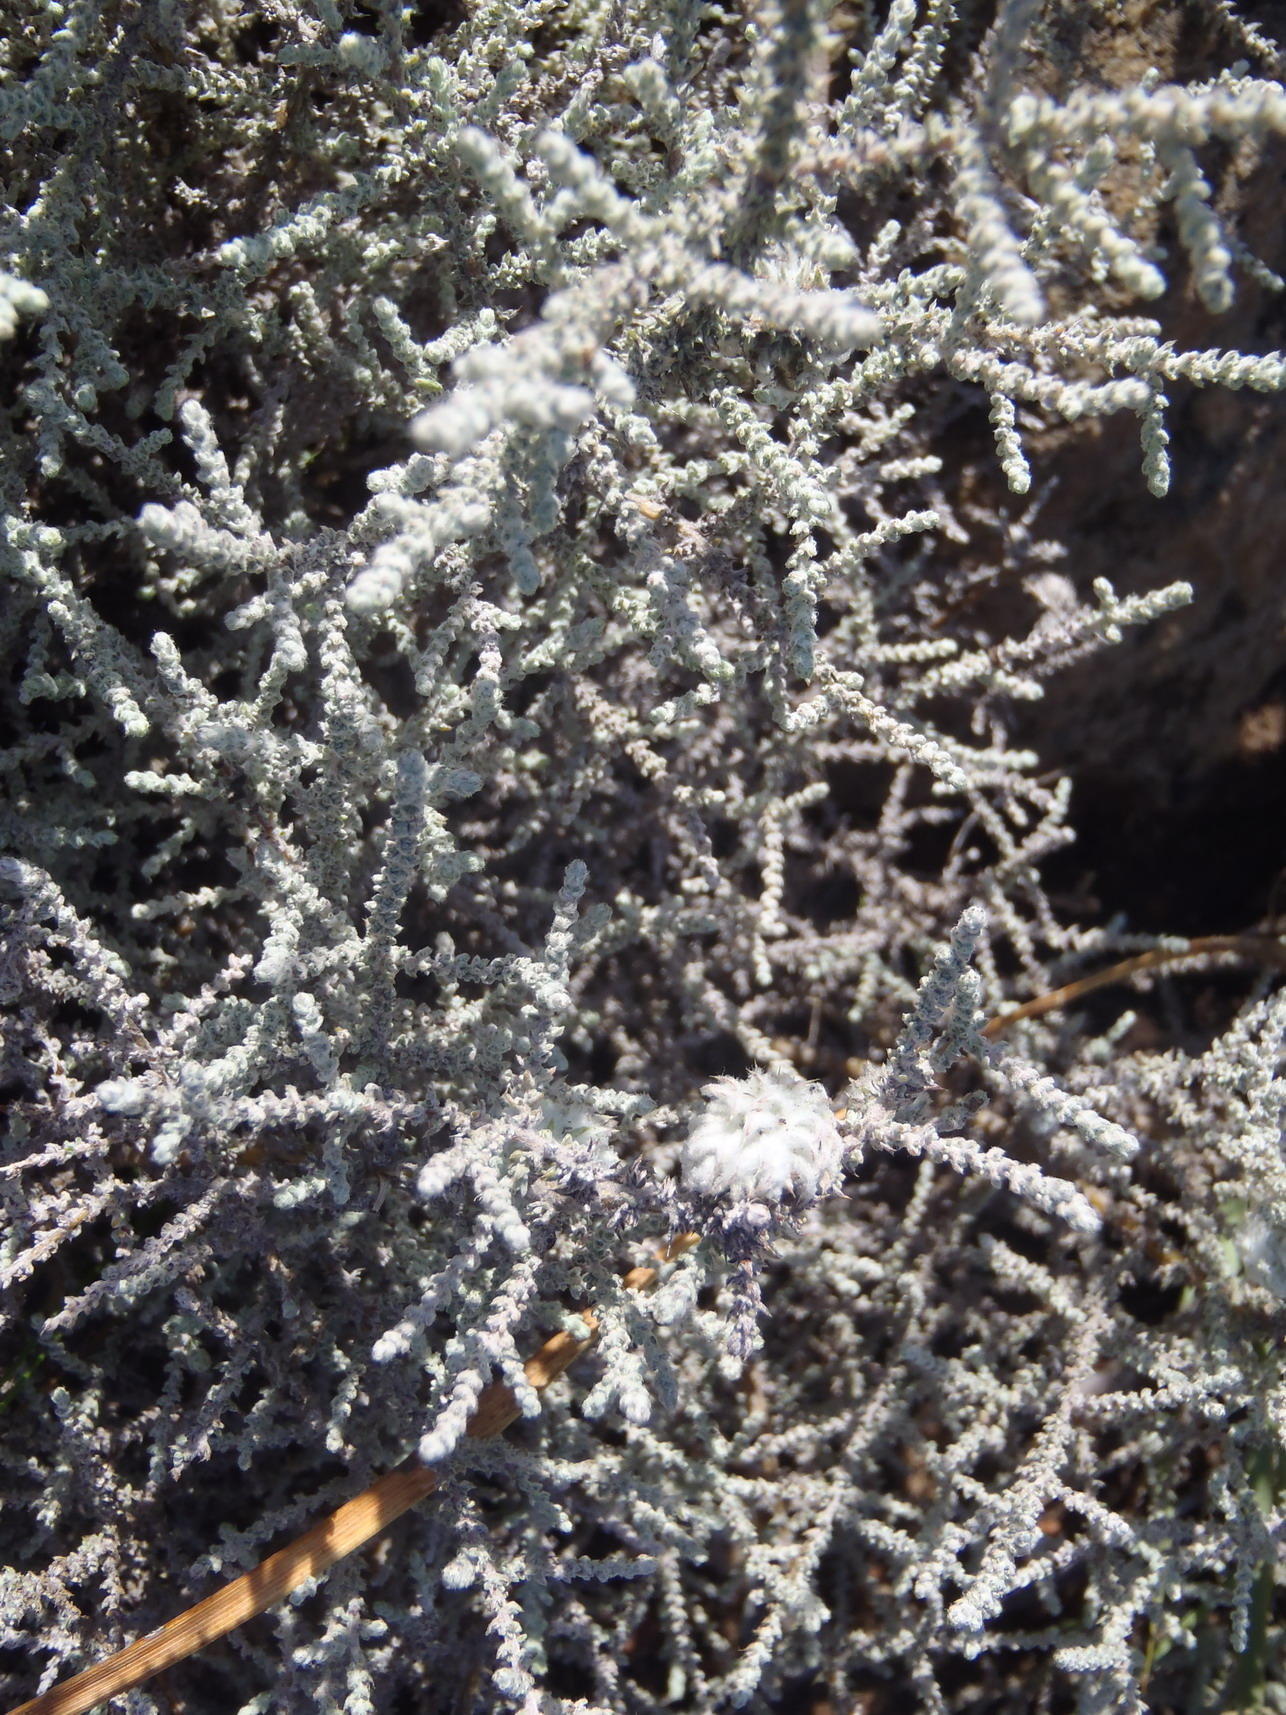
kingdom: Plantae
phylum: Tracheophyta
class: Magnoliopsida
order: Asterales
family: Asteraceae
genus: Seriphium
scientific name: Seriphium plumosum
